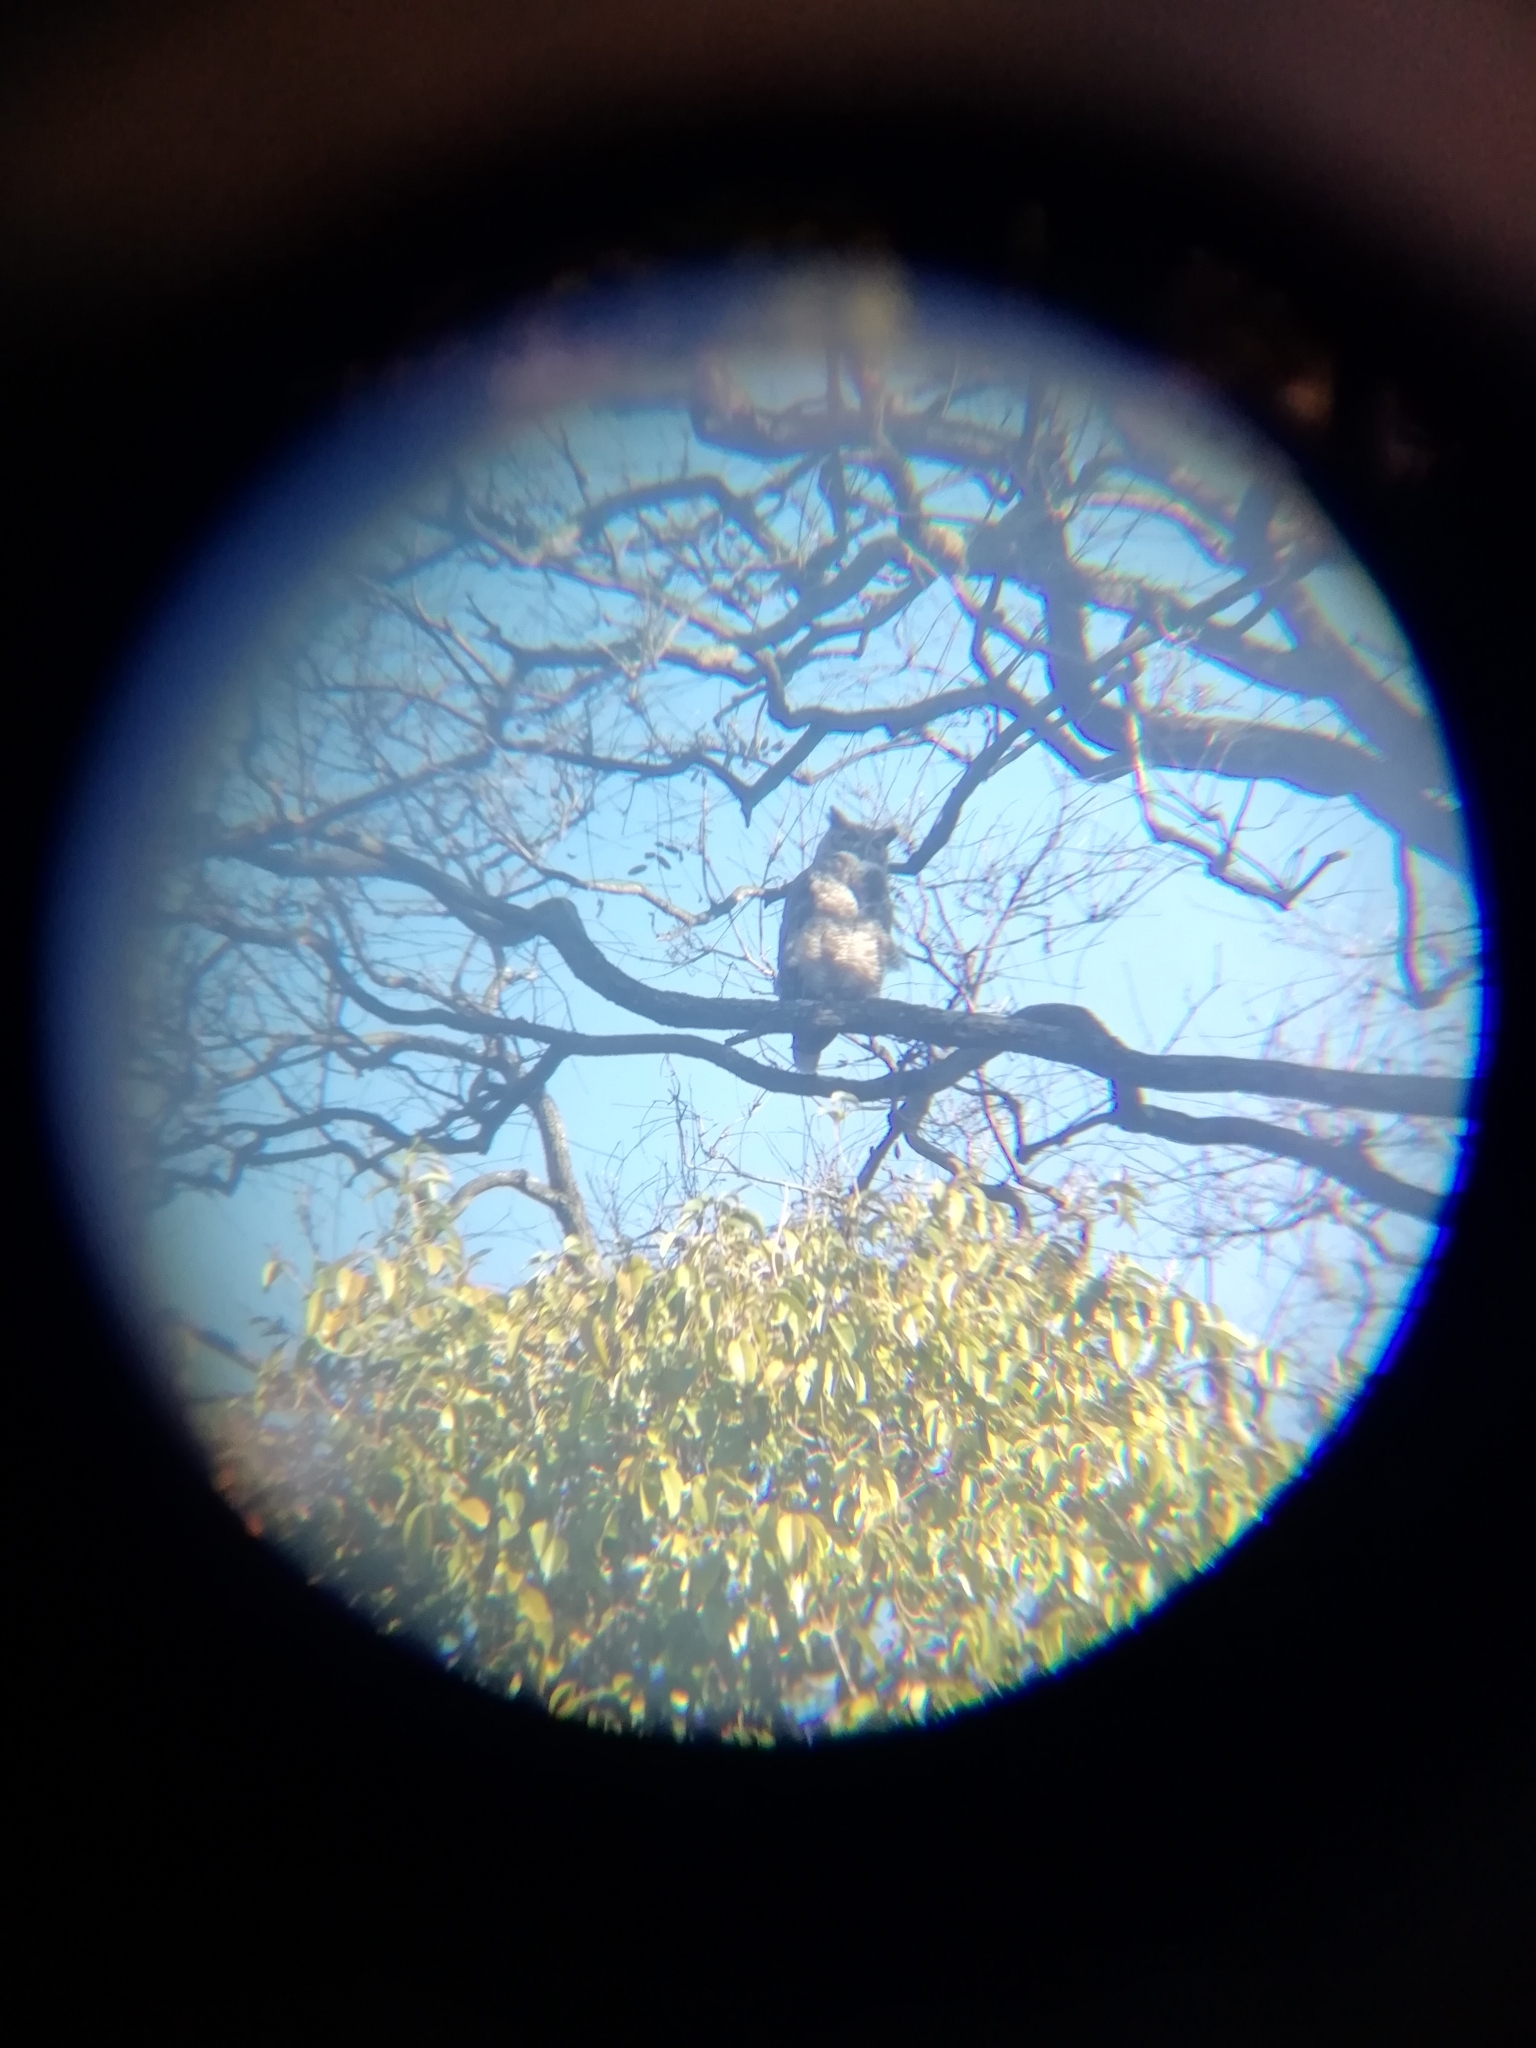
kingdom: Animalia
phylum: Chordata
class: Aves
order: Strigiformes
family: Strigidae
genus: Bubo
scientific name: Bubo virginianus
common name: Great horned owl
